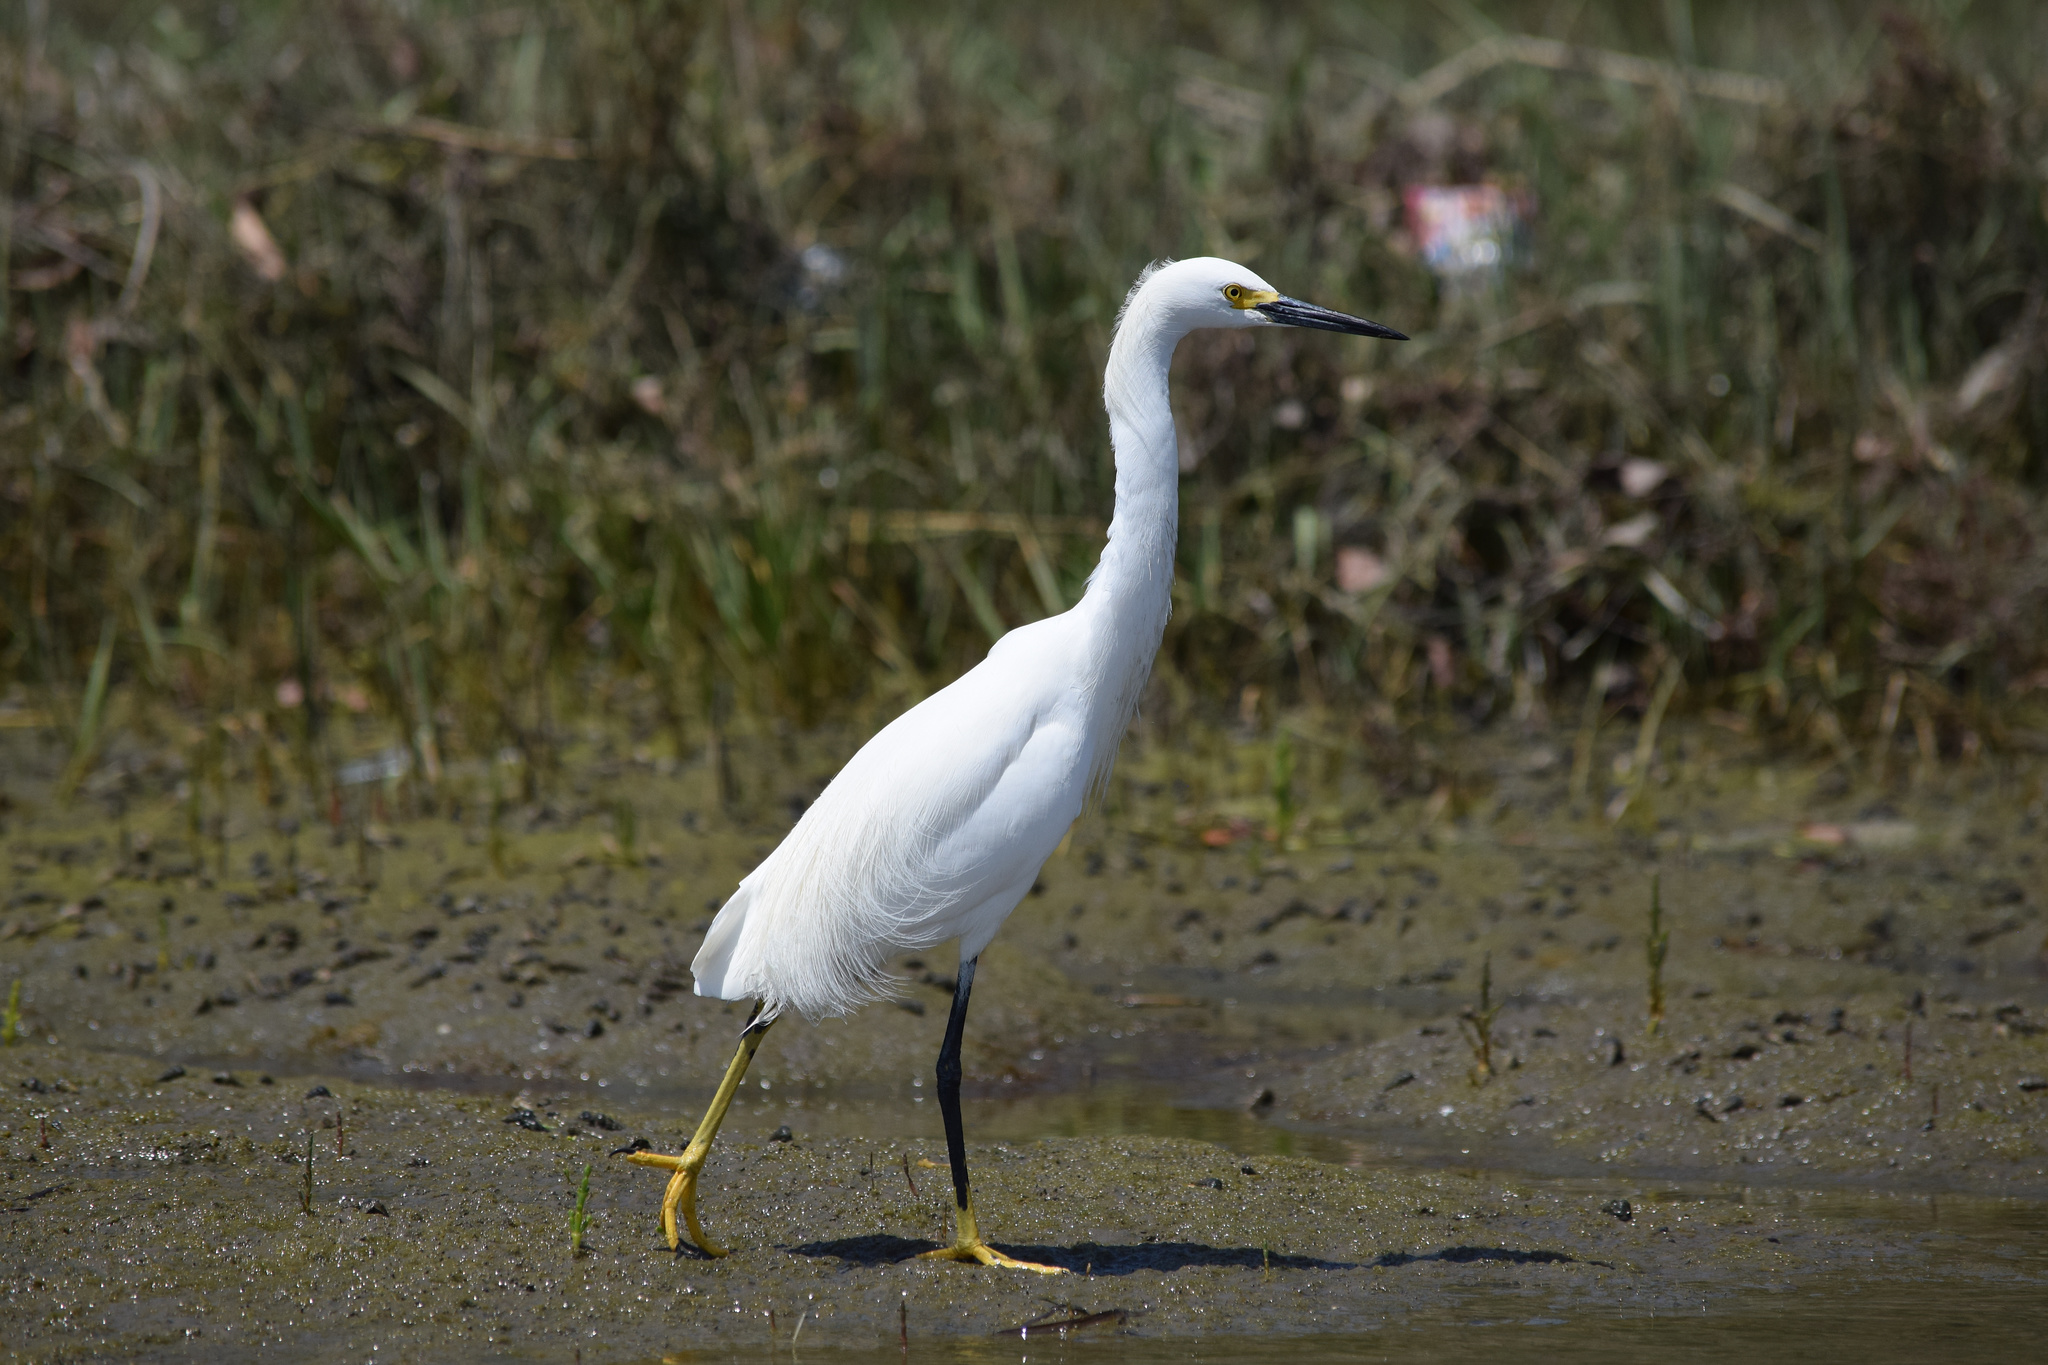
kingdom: Animalia
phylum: Chordata
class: Aves
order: Pelecaniformes
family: Ardeidae
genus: Egretta
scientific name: Egretta thula
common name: Snowy egret
